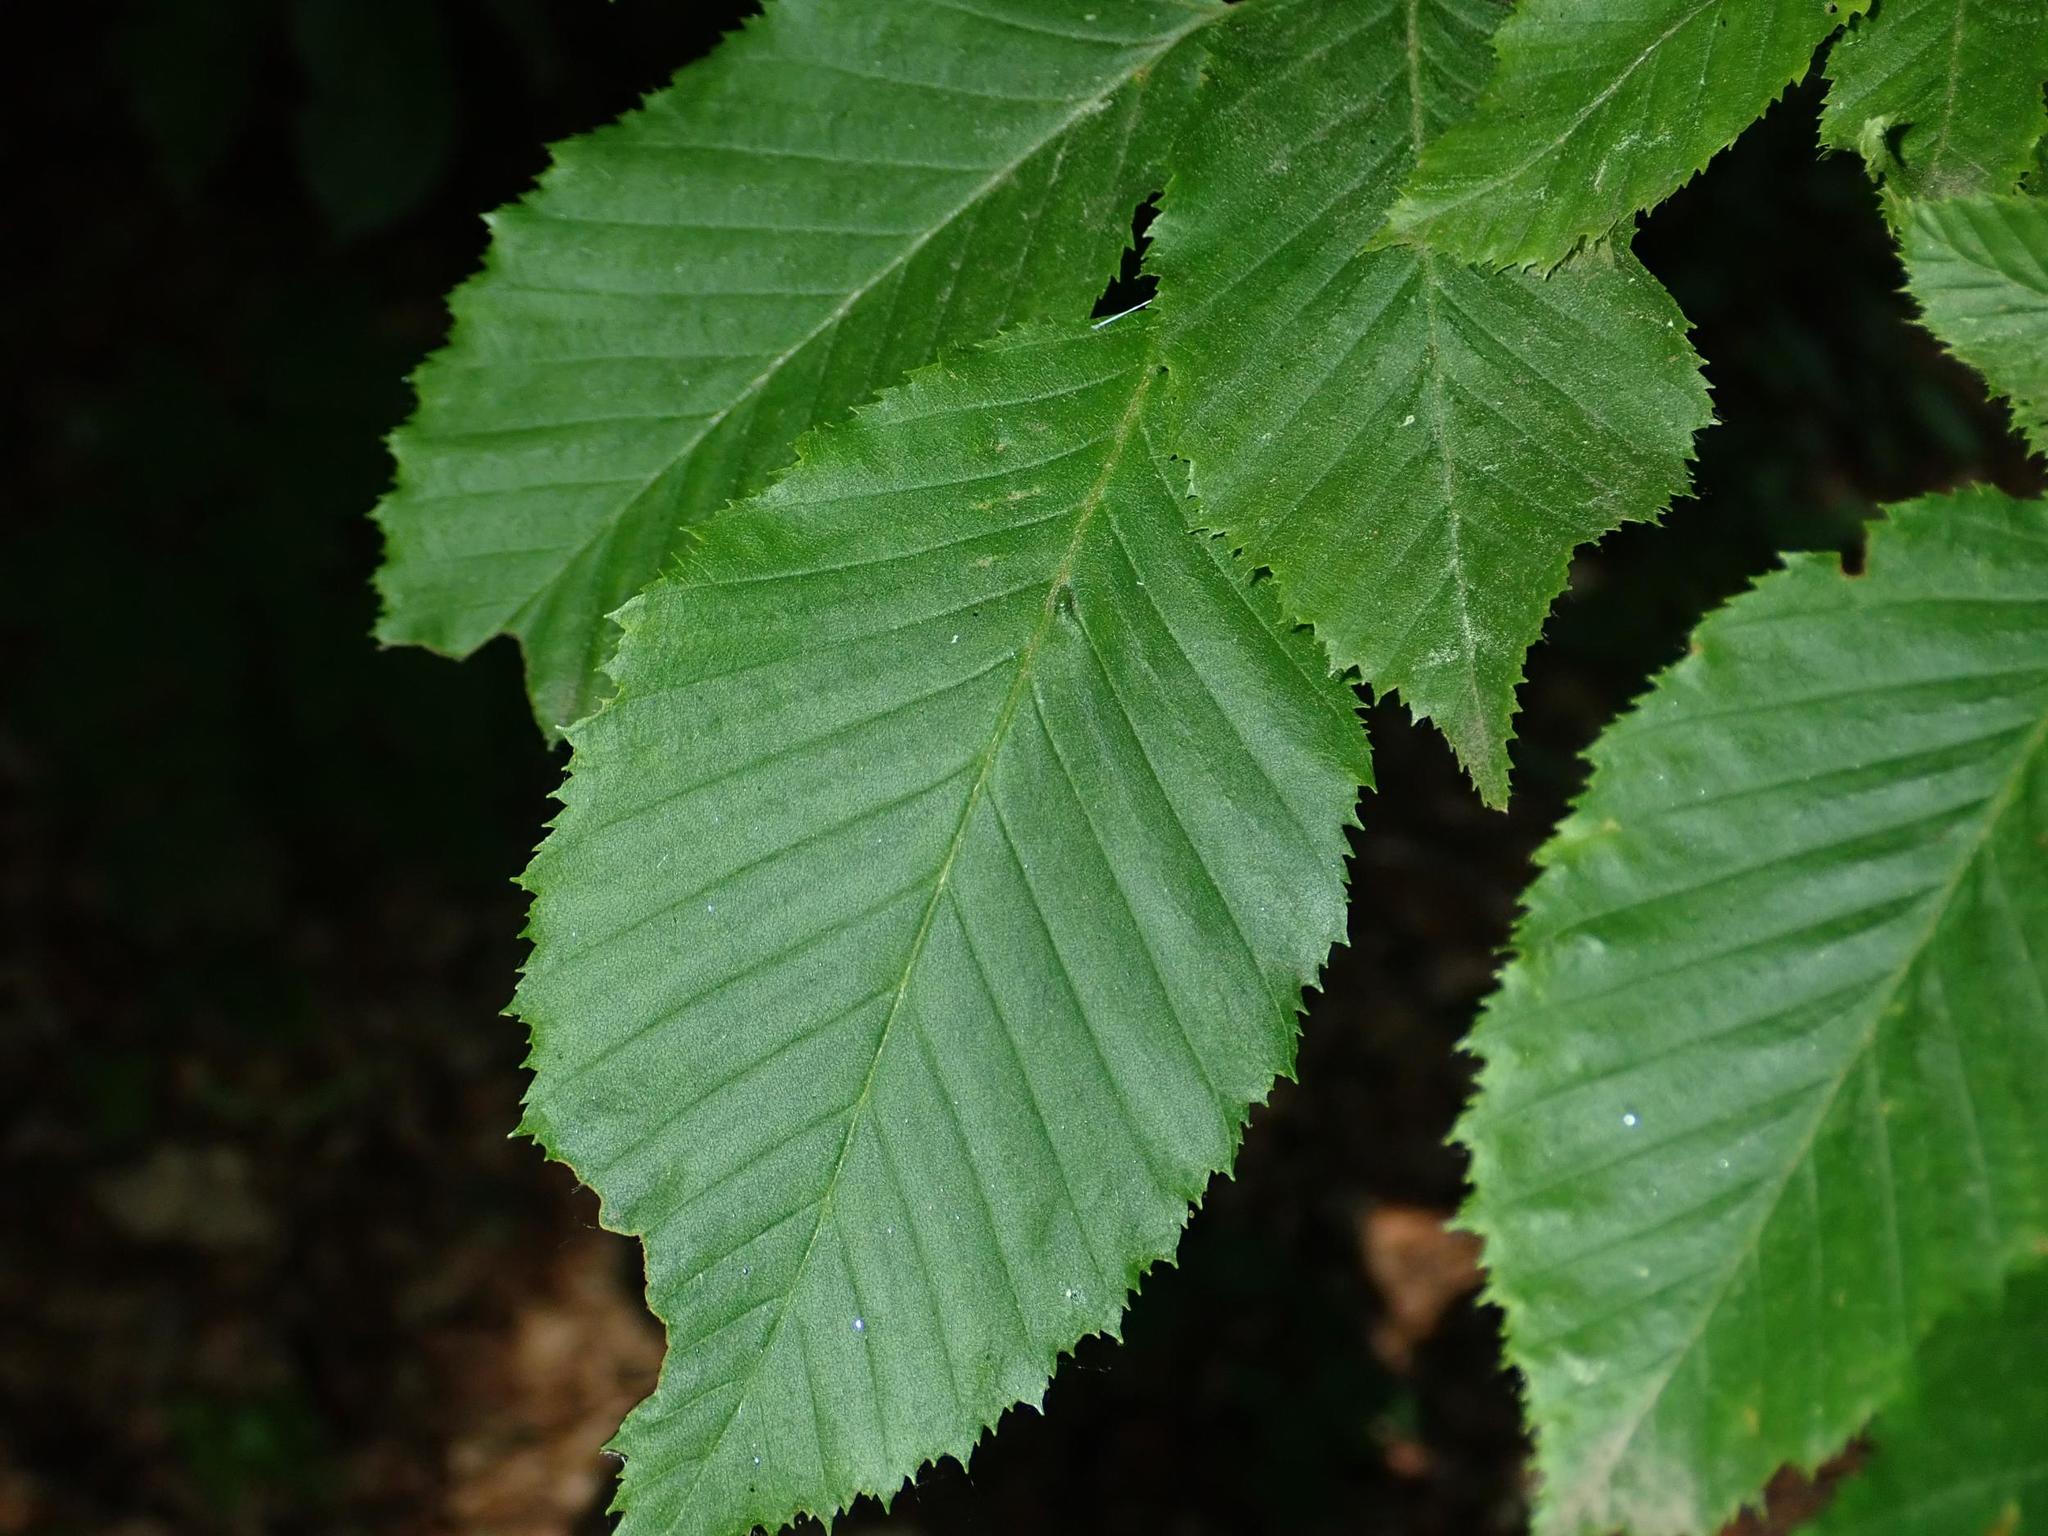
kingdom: Plantae
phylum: Tracheophyta
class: Magnoliopsida
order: Fagales
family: Betulaceae
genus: Carpinus
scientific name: Carpinus betulus
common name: Hornbeam
